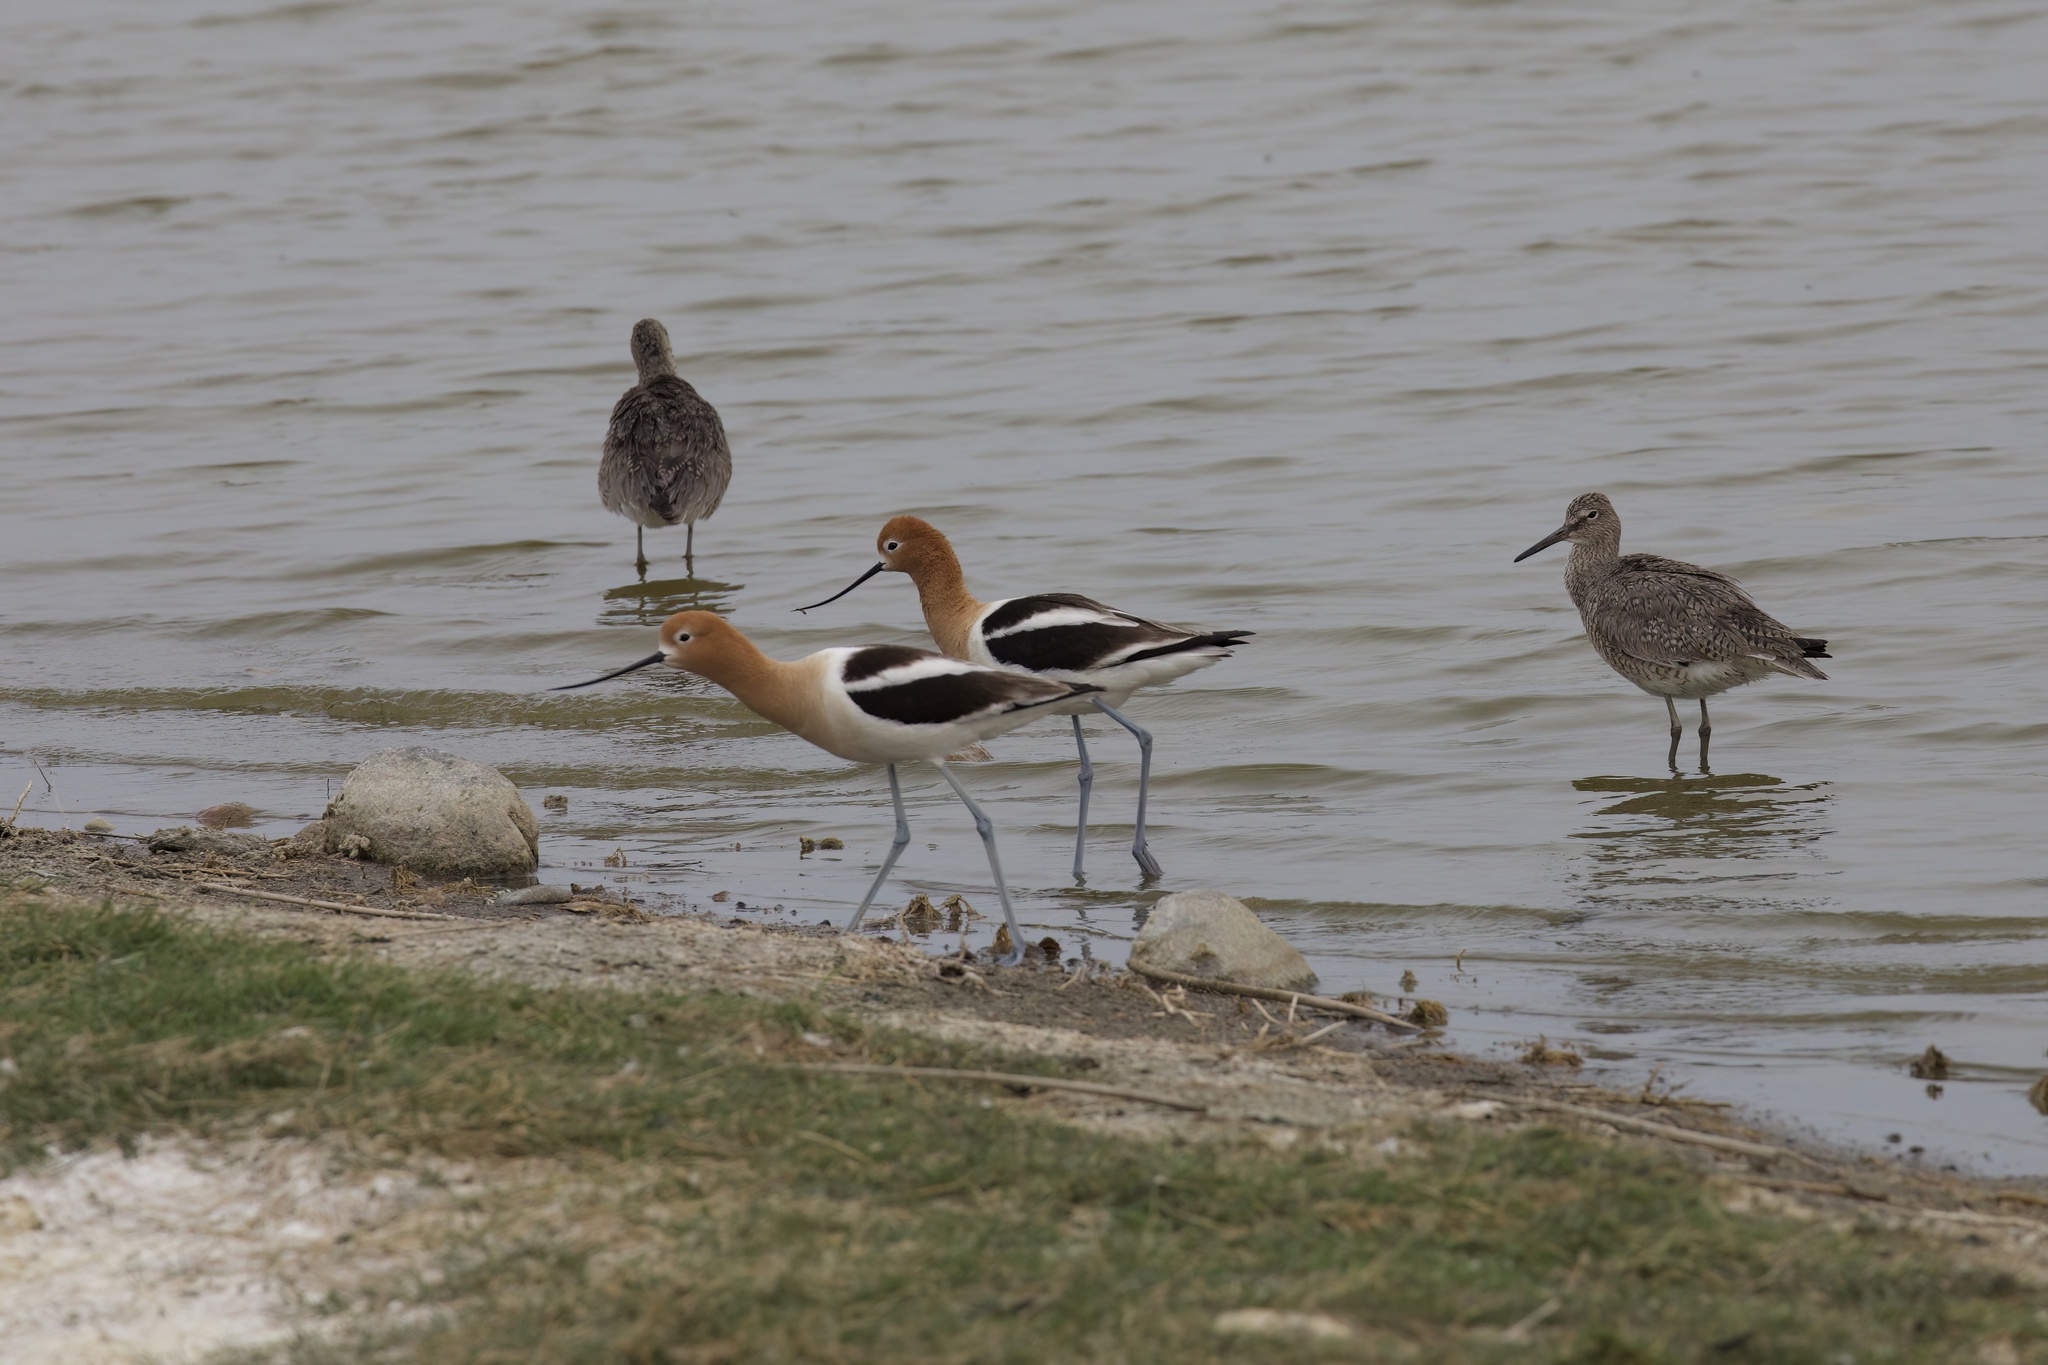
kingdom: Animalia
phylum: Chordata
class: Aves
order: Charadriiformes
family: Recurvirostridae
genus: Recurvirostra
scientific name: Recurvirostra americana
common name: American avocet
